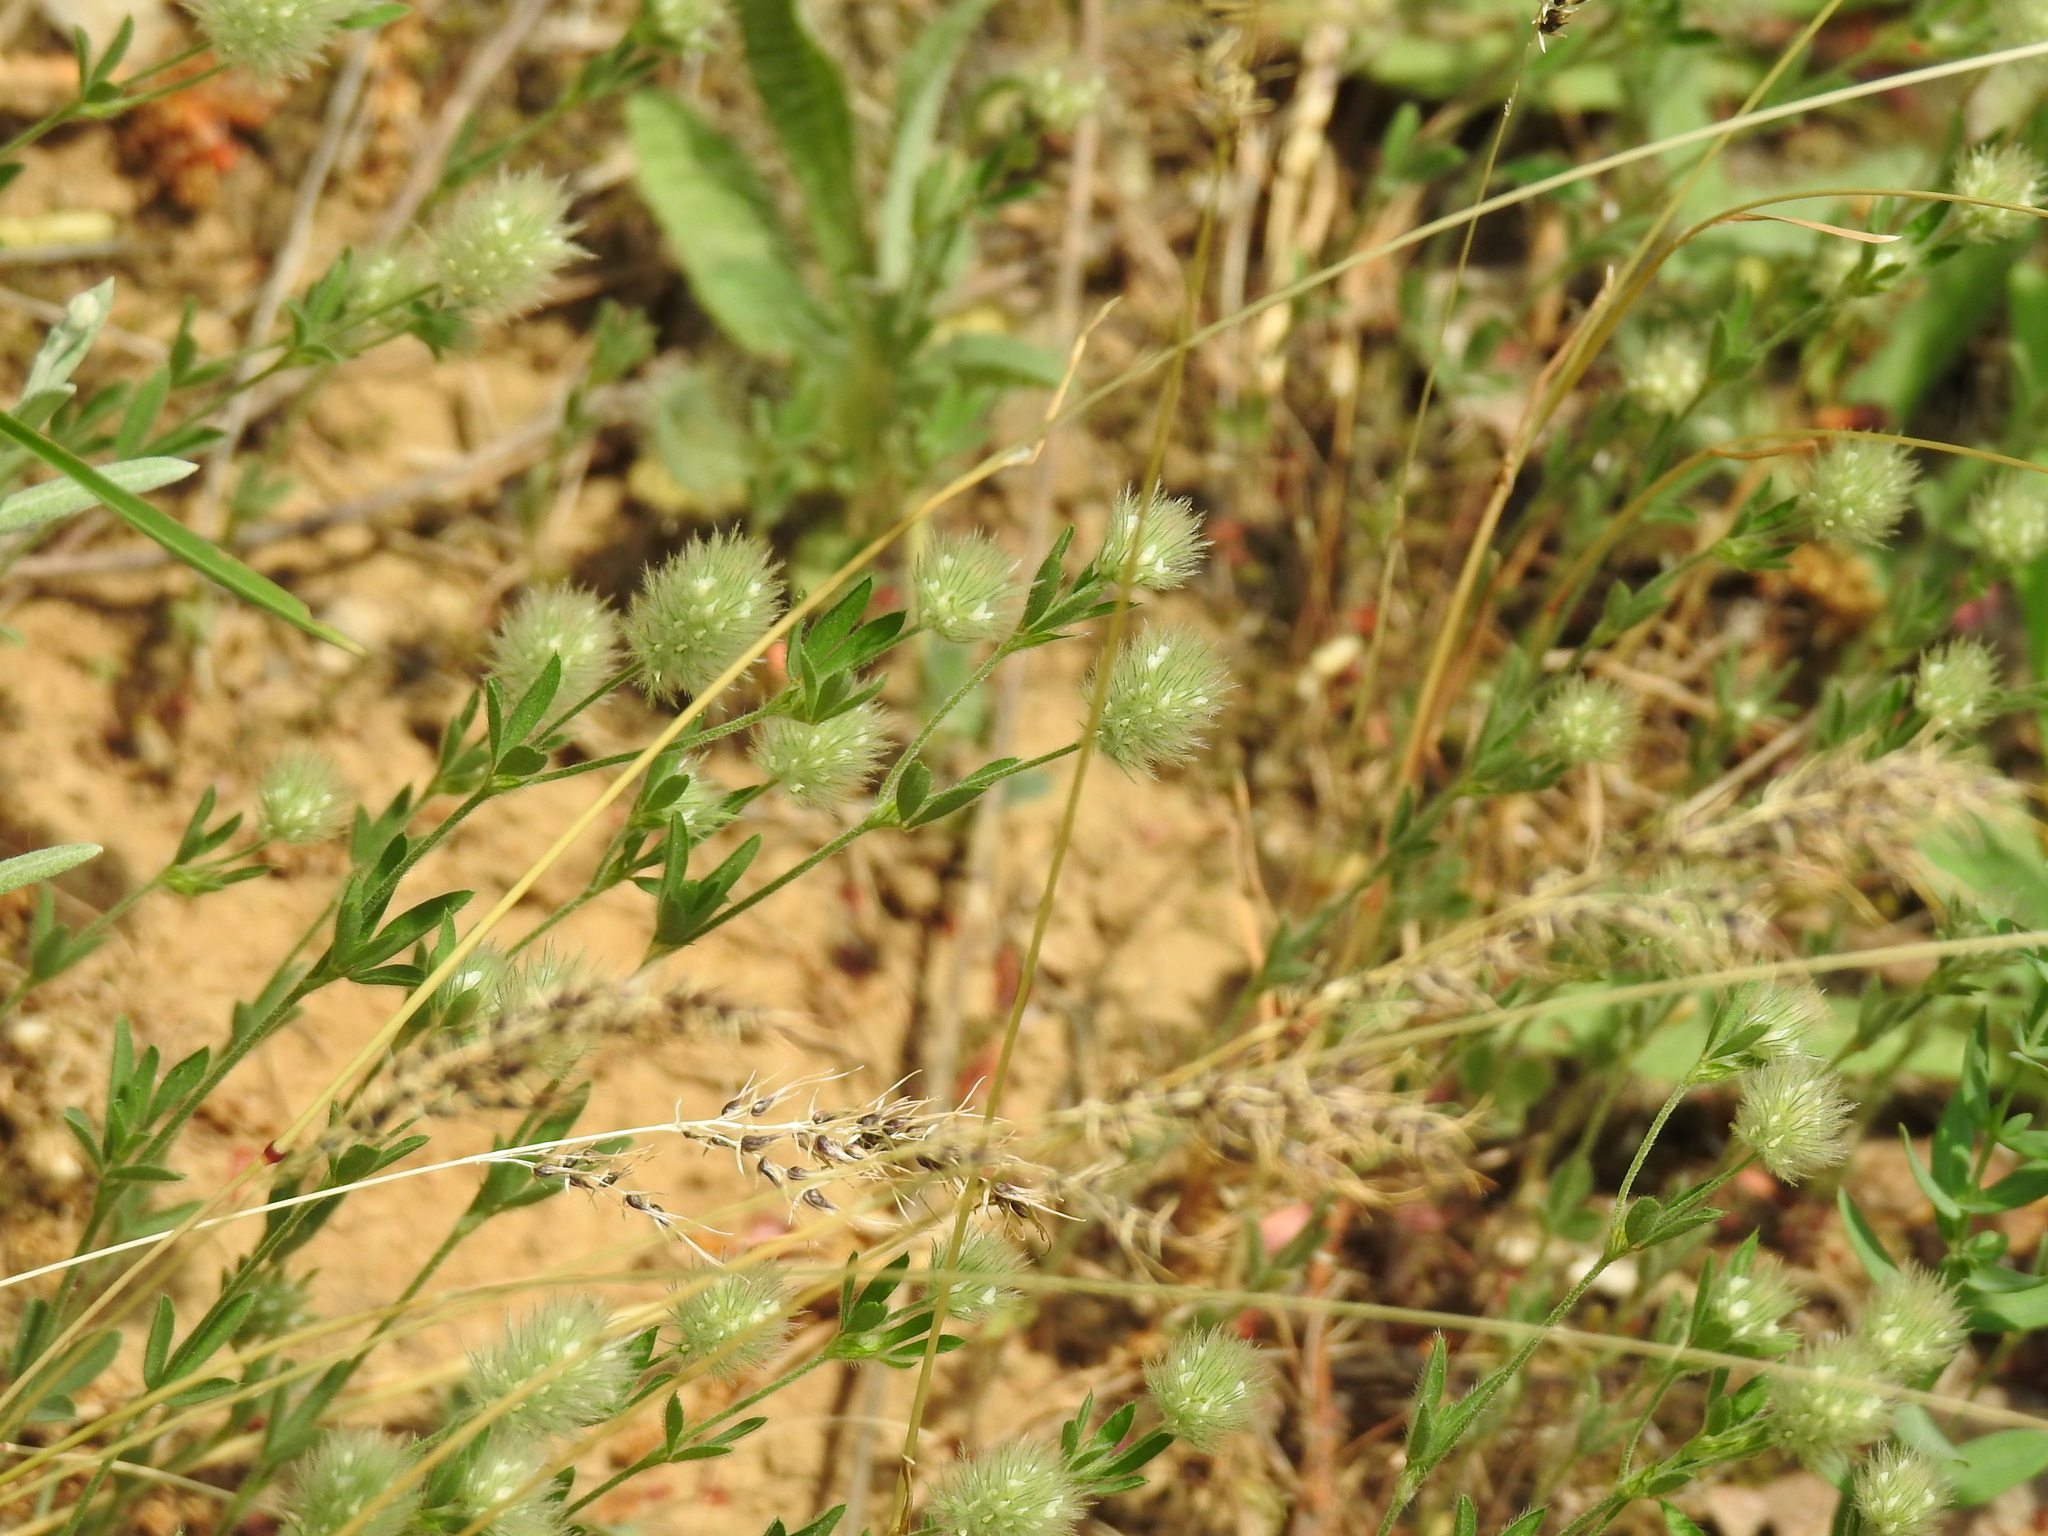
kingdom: Plantae
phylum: Tracheophyta
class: Magnoliopsida
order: Fabales
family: Fabaceae
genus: Trifolium
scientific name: Trifolium arvense
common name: Hare's-foot clover
